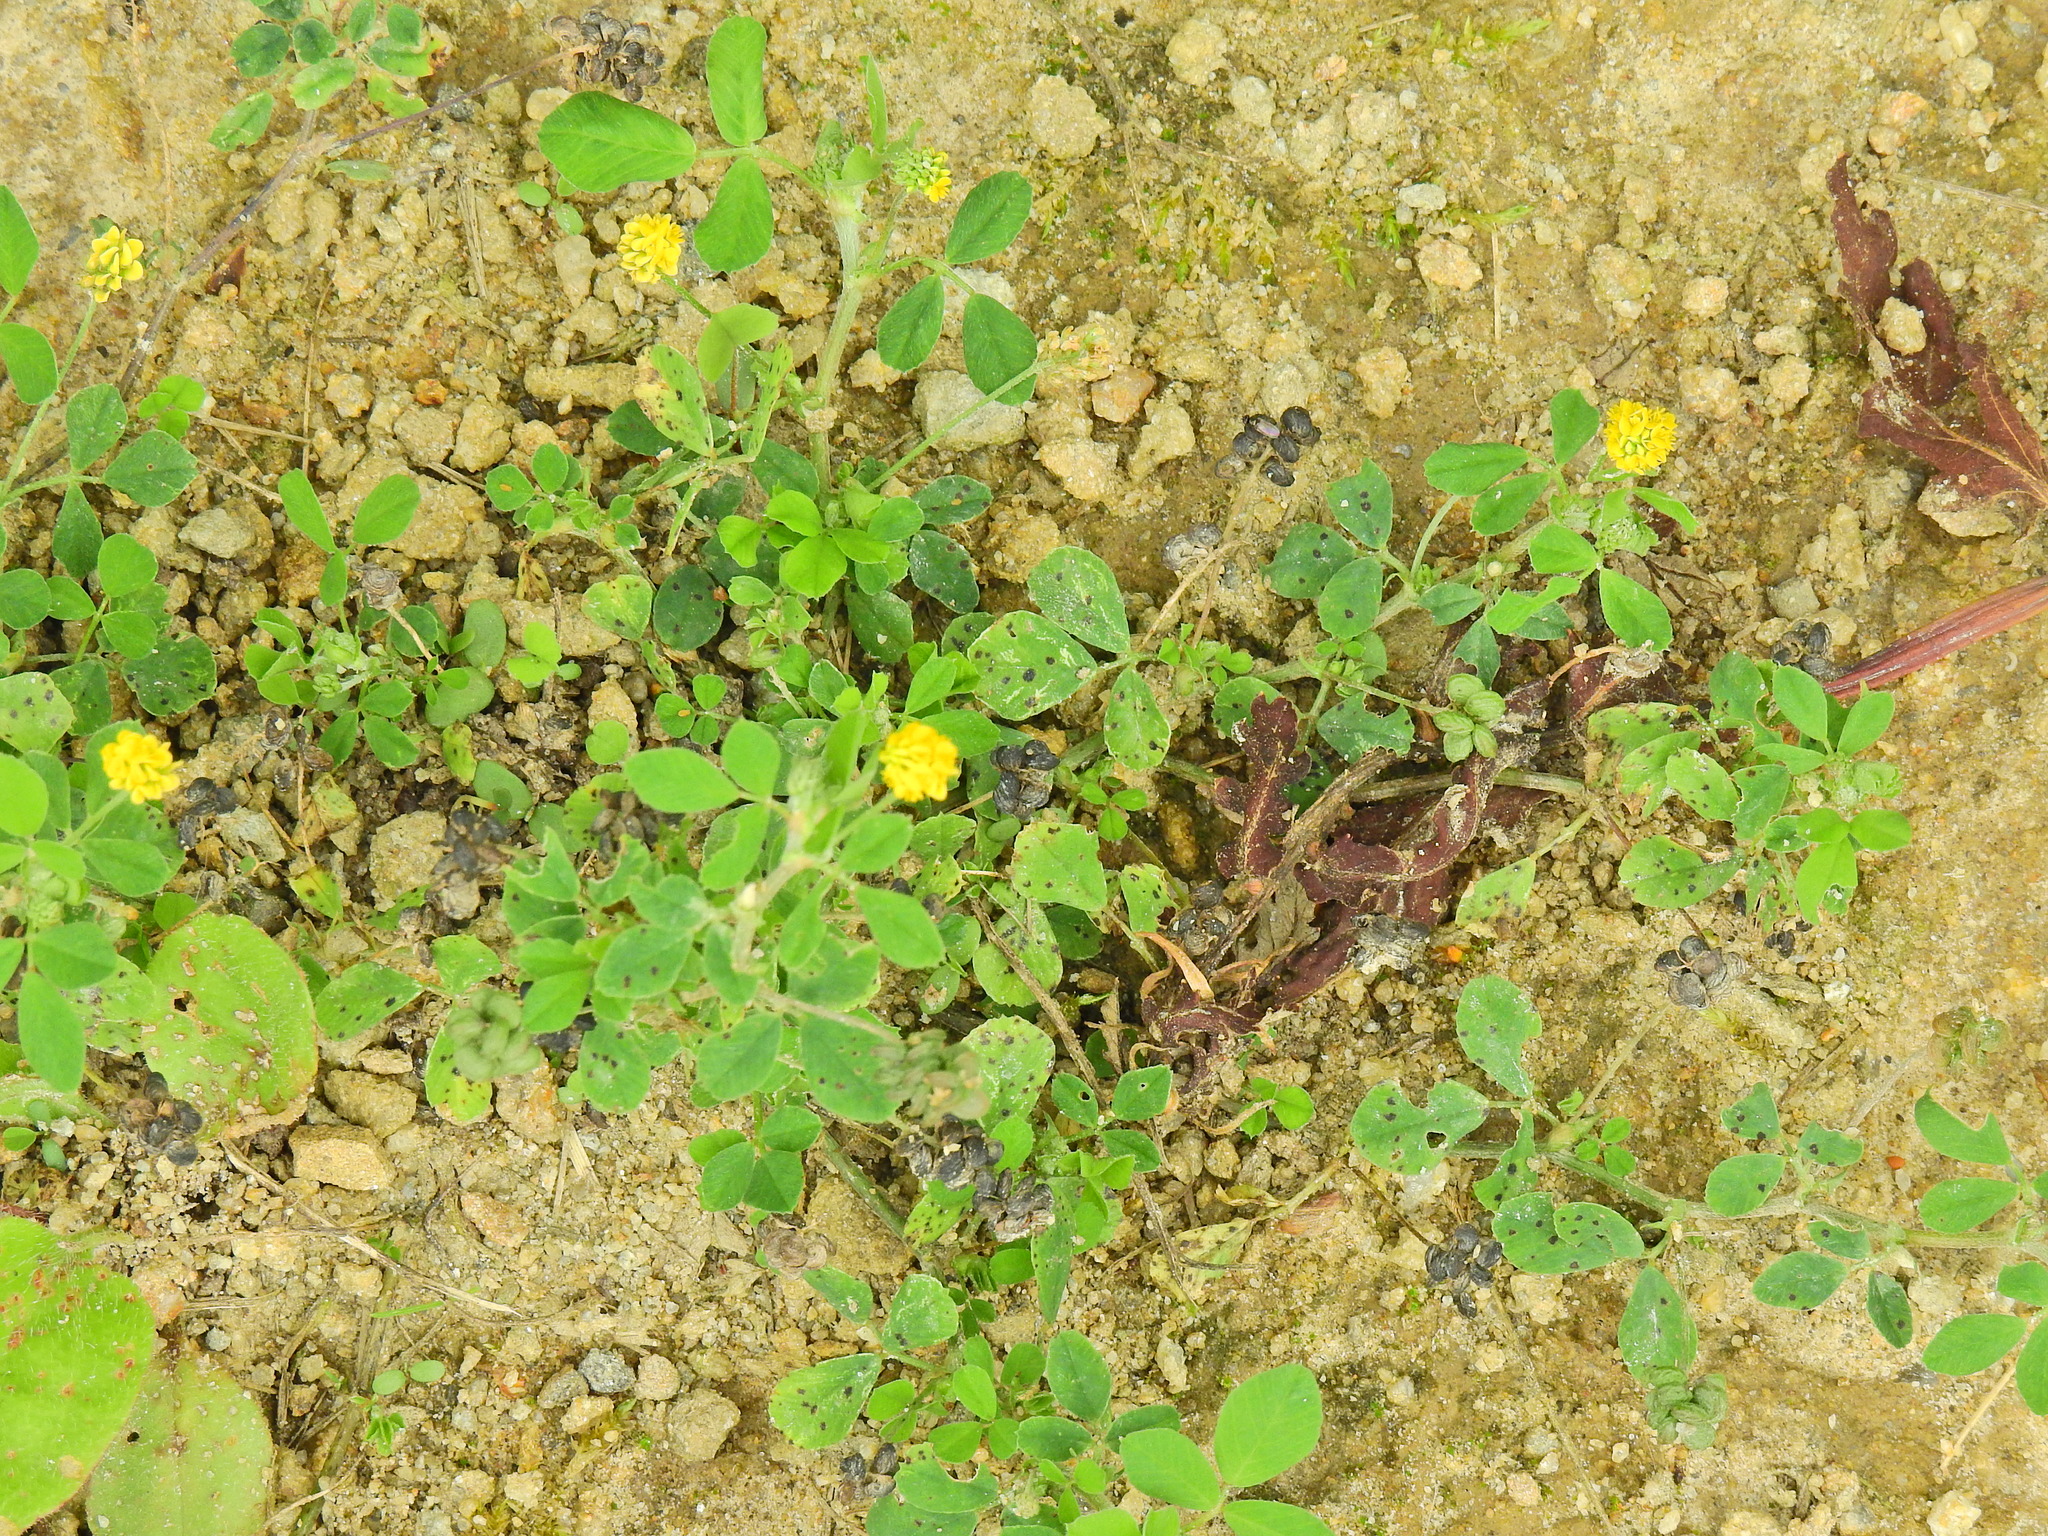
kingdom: Plantae
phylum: Tracheophyta
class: Magnoliopsida
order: Fabales
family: Fabaceae
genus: Medicago
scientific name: Medicago lupulina
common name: Black medick
